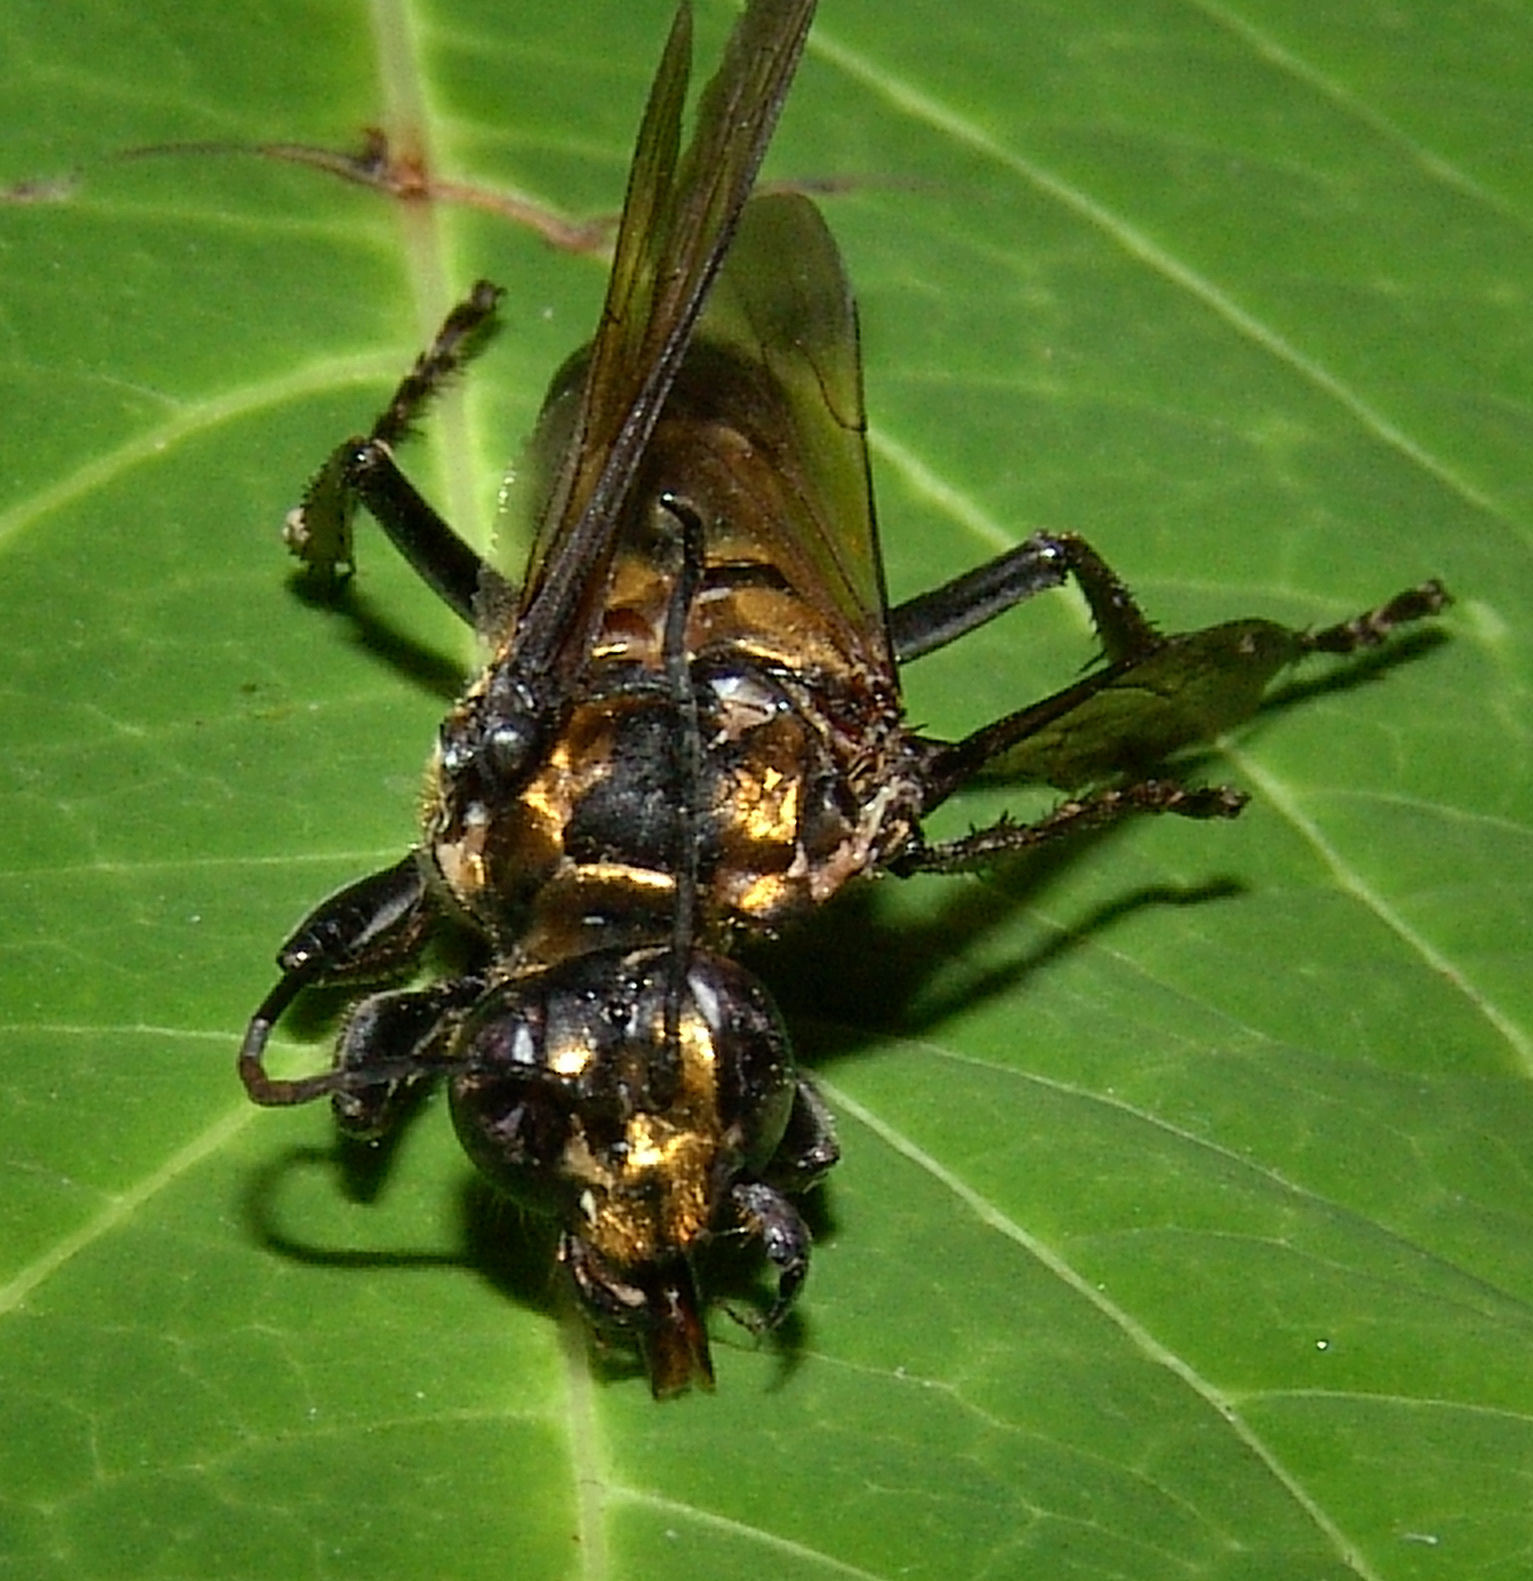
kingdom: Animalia
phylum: Arthropoda
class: Insecta
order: Hymenoptera
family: Sphecidae
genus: Sphex
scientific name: Sphex habenus
